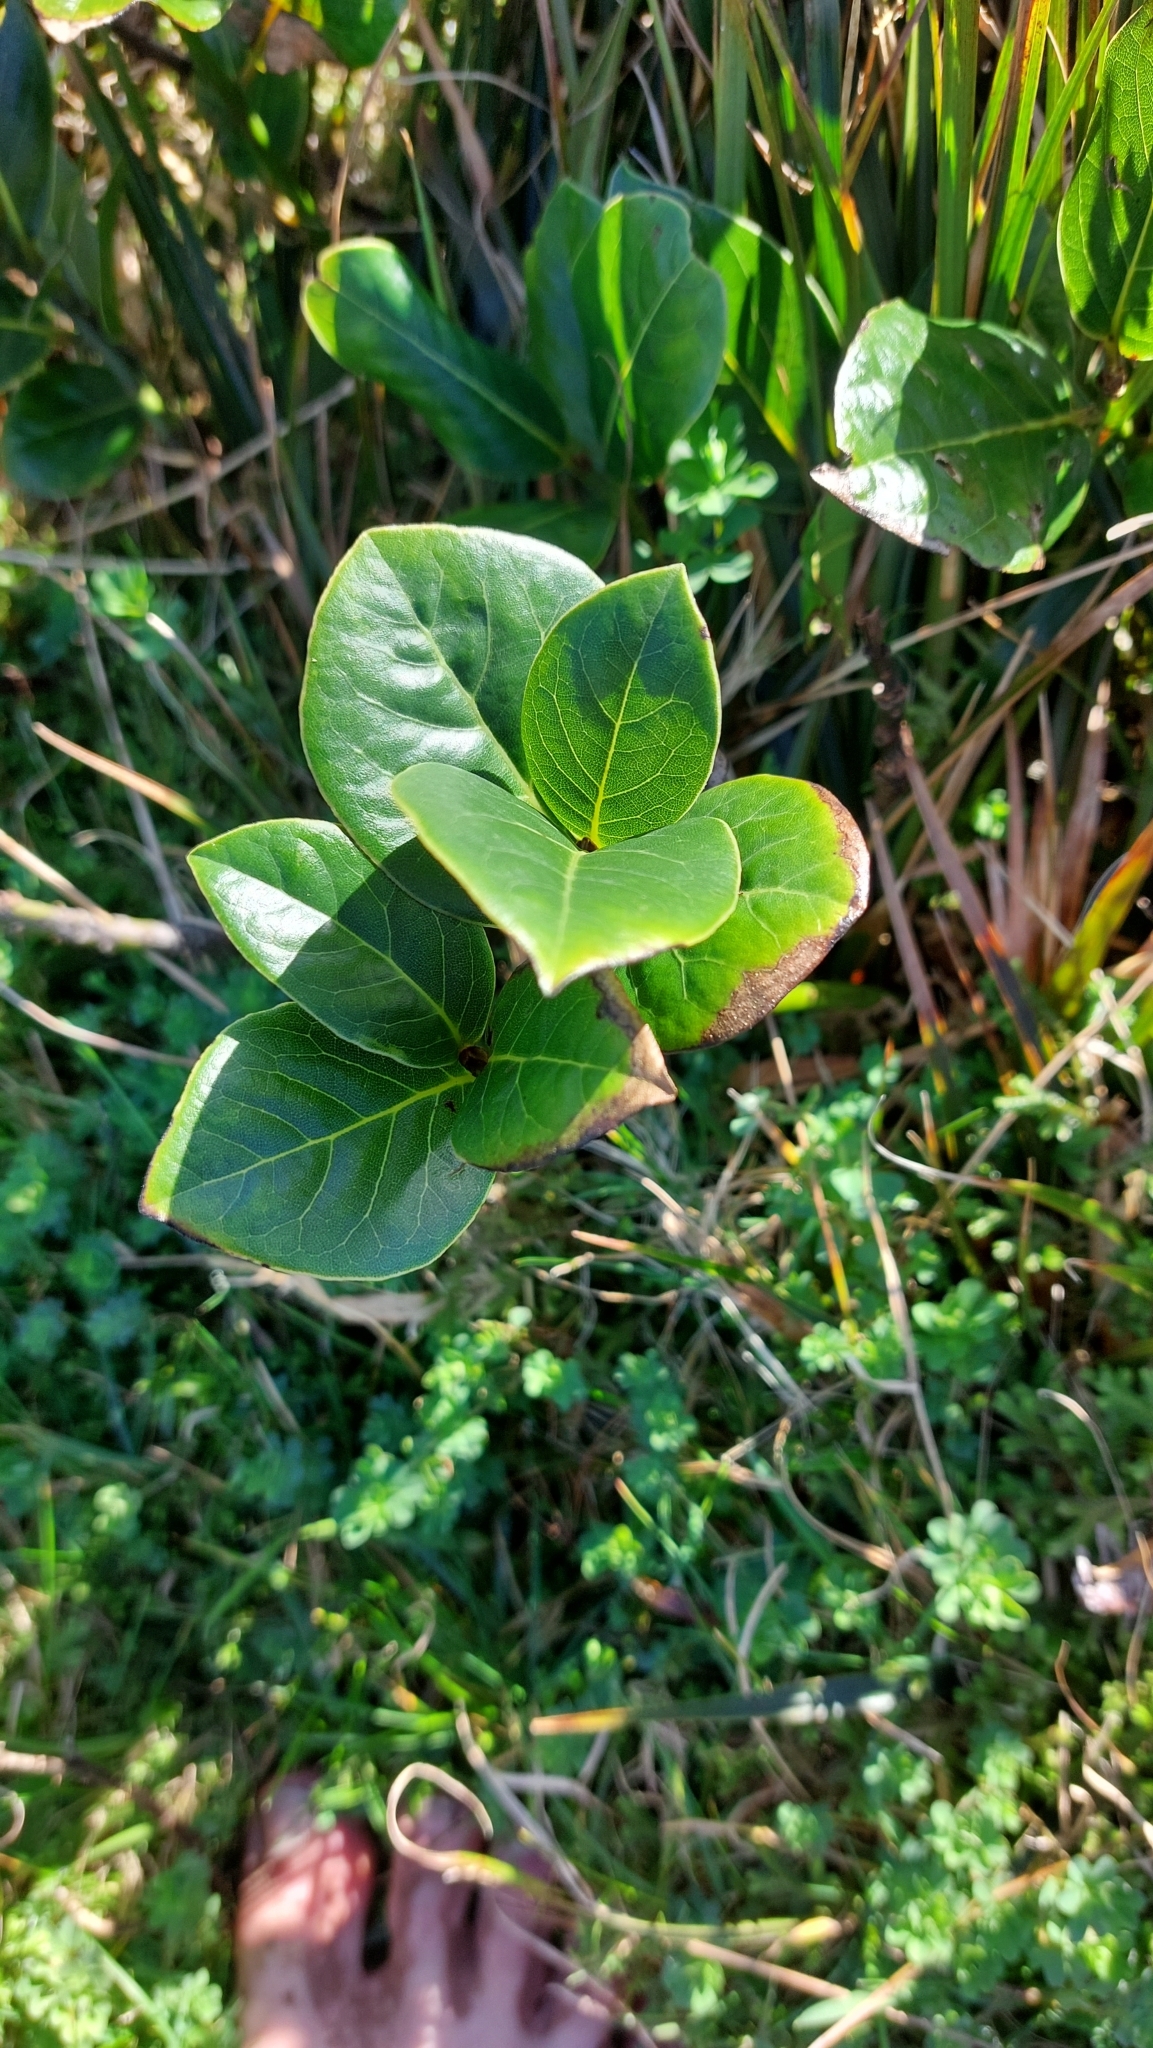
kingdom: Plantae
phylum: Tracheophyta
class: Magnoliopsida
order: Laurales
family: Lauraceae
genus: Laurus
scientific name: Laurus azorica
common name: Macaronesian laurel
